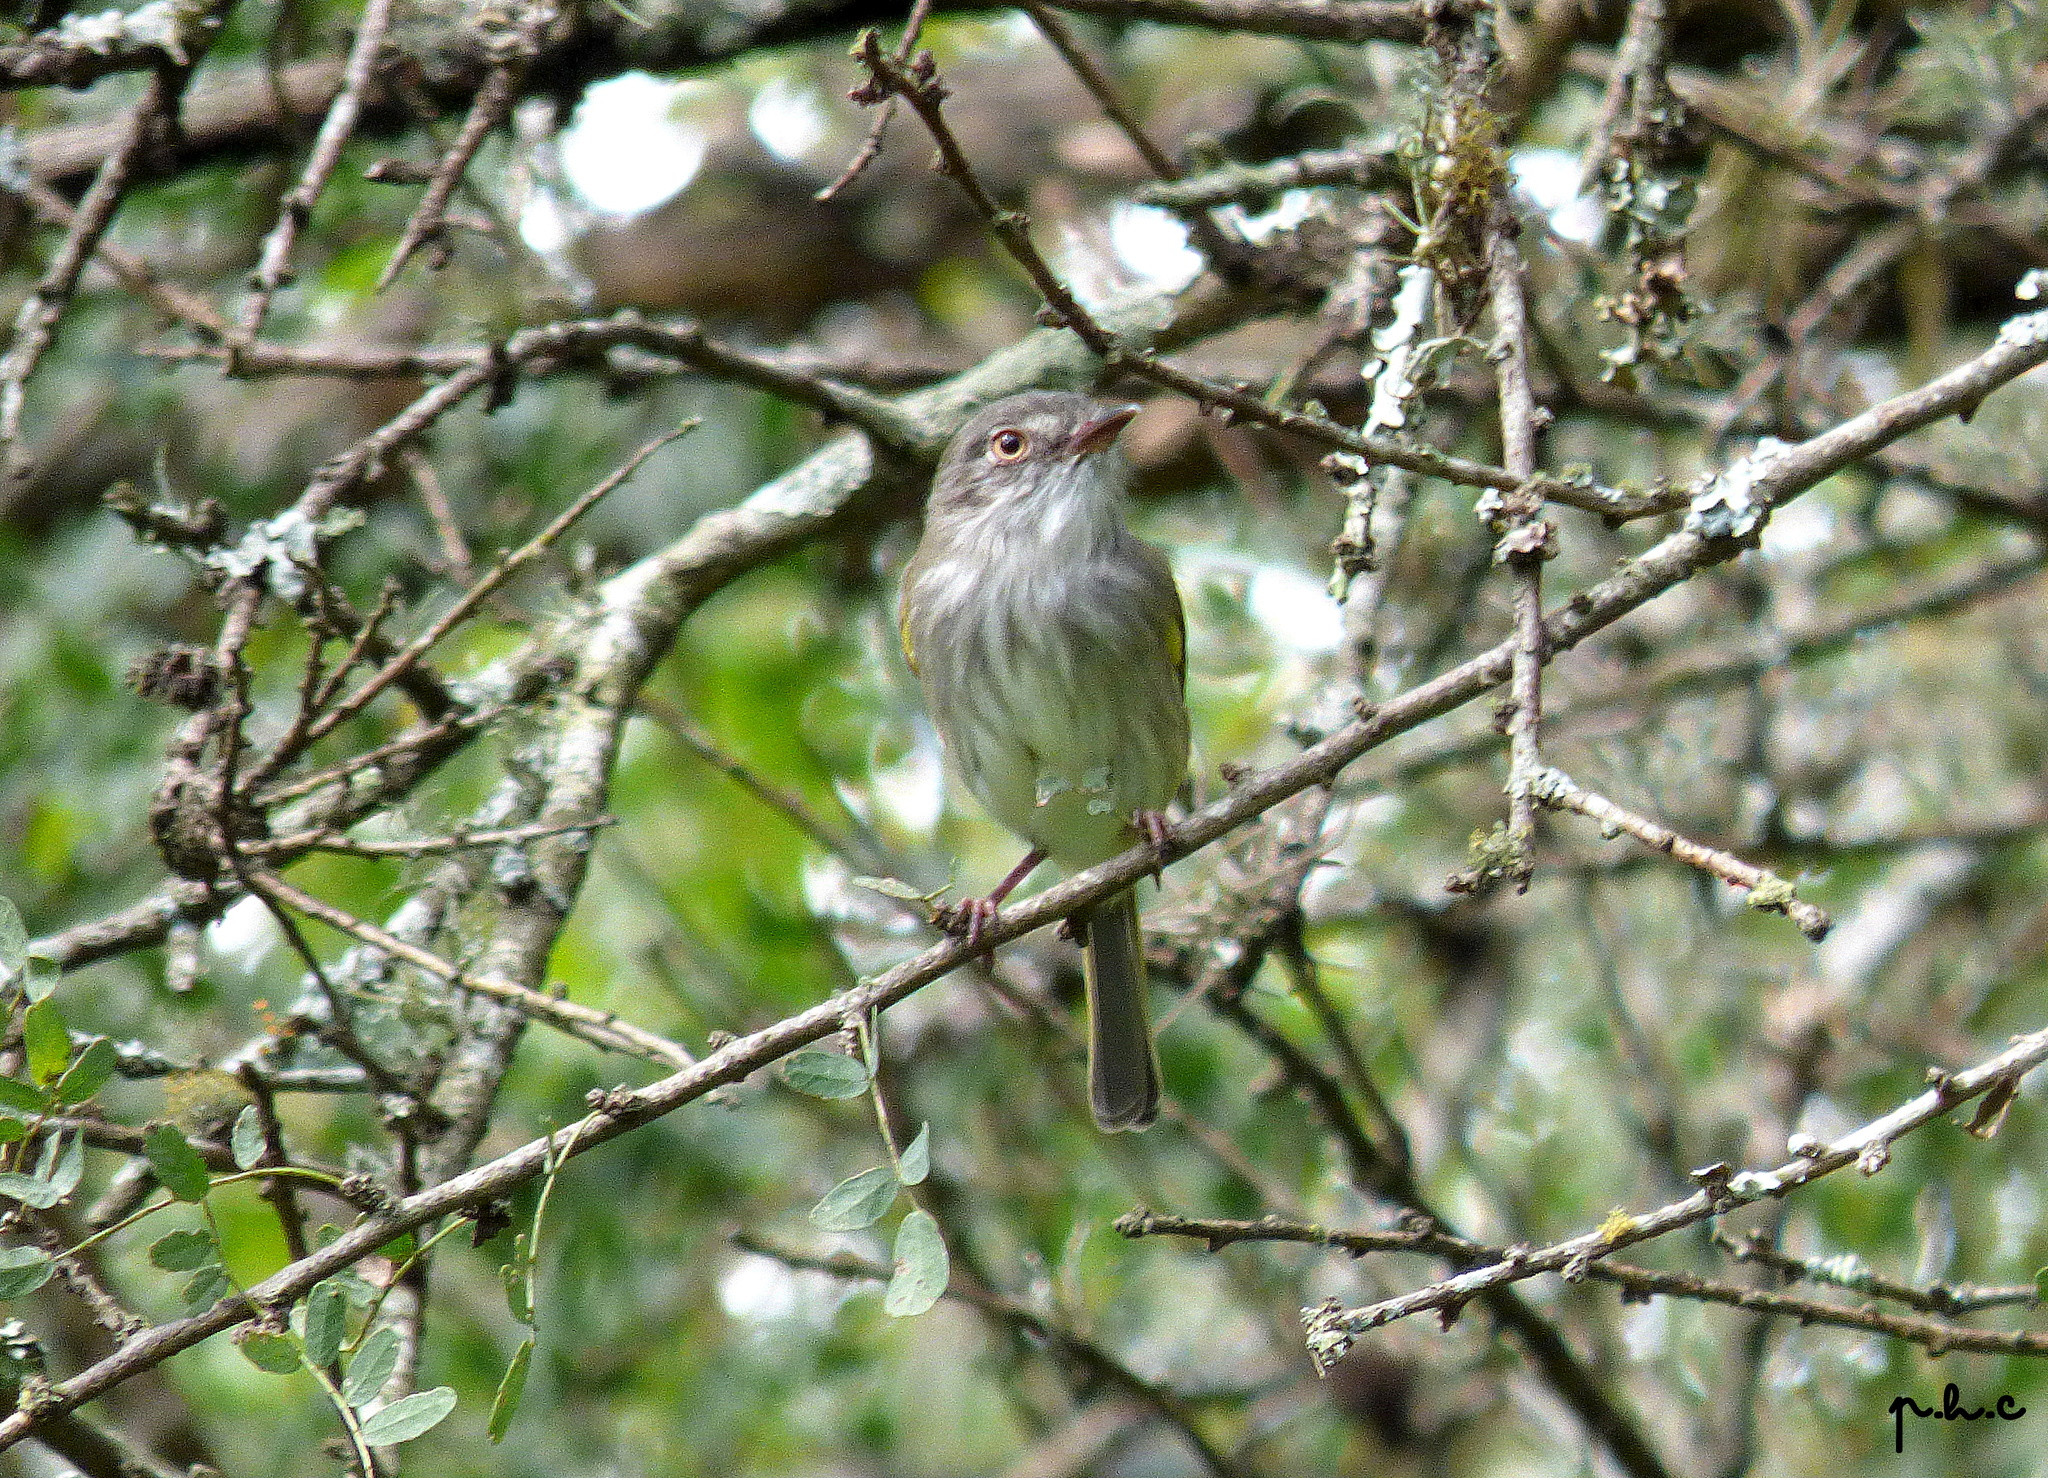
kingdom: Animalia
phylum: Chordata
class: Aves
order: Passeriformes
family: Tyrannidae
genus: Hemitriccus
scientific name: Hemitriccus margaritaceiventer
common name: Pearly-vented tody-tyrant
